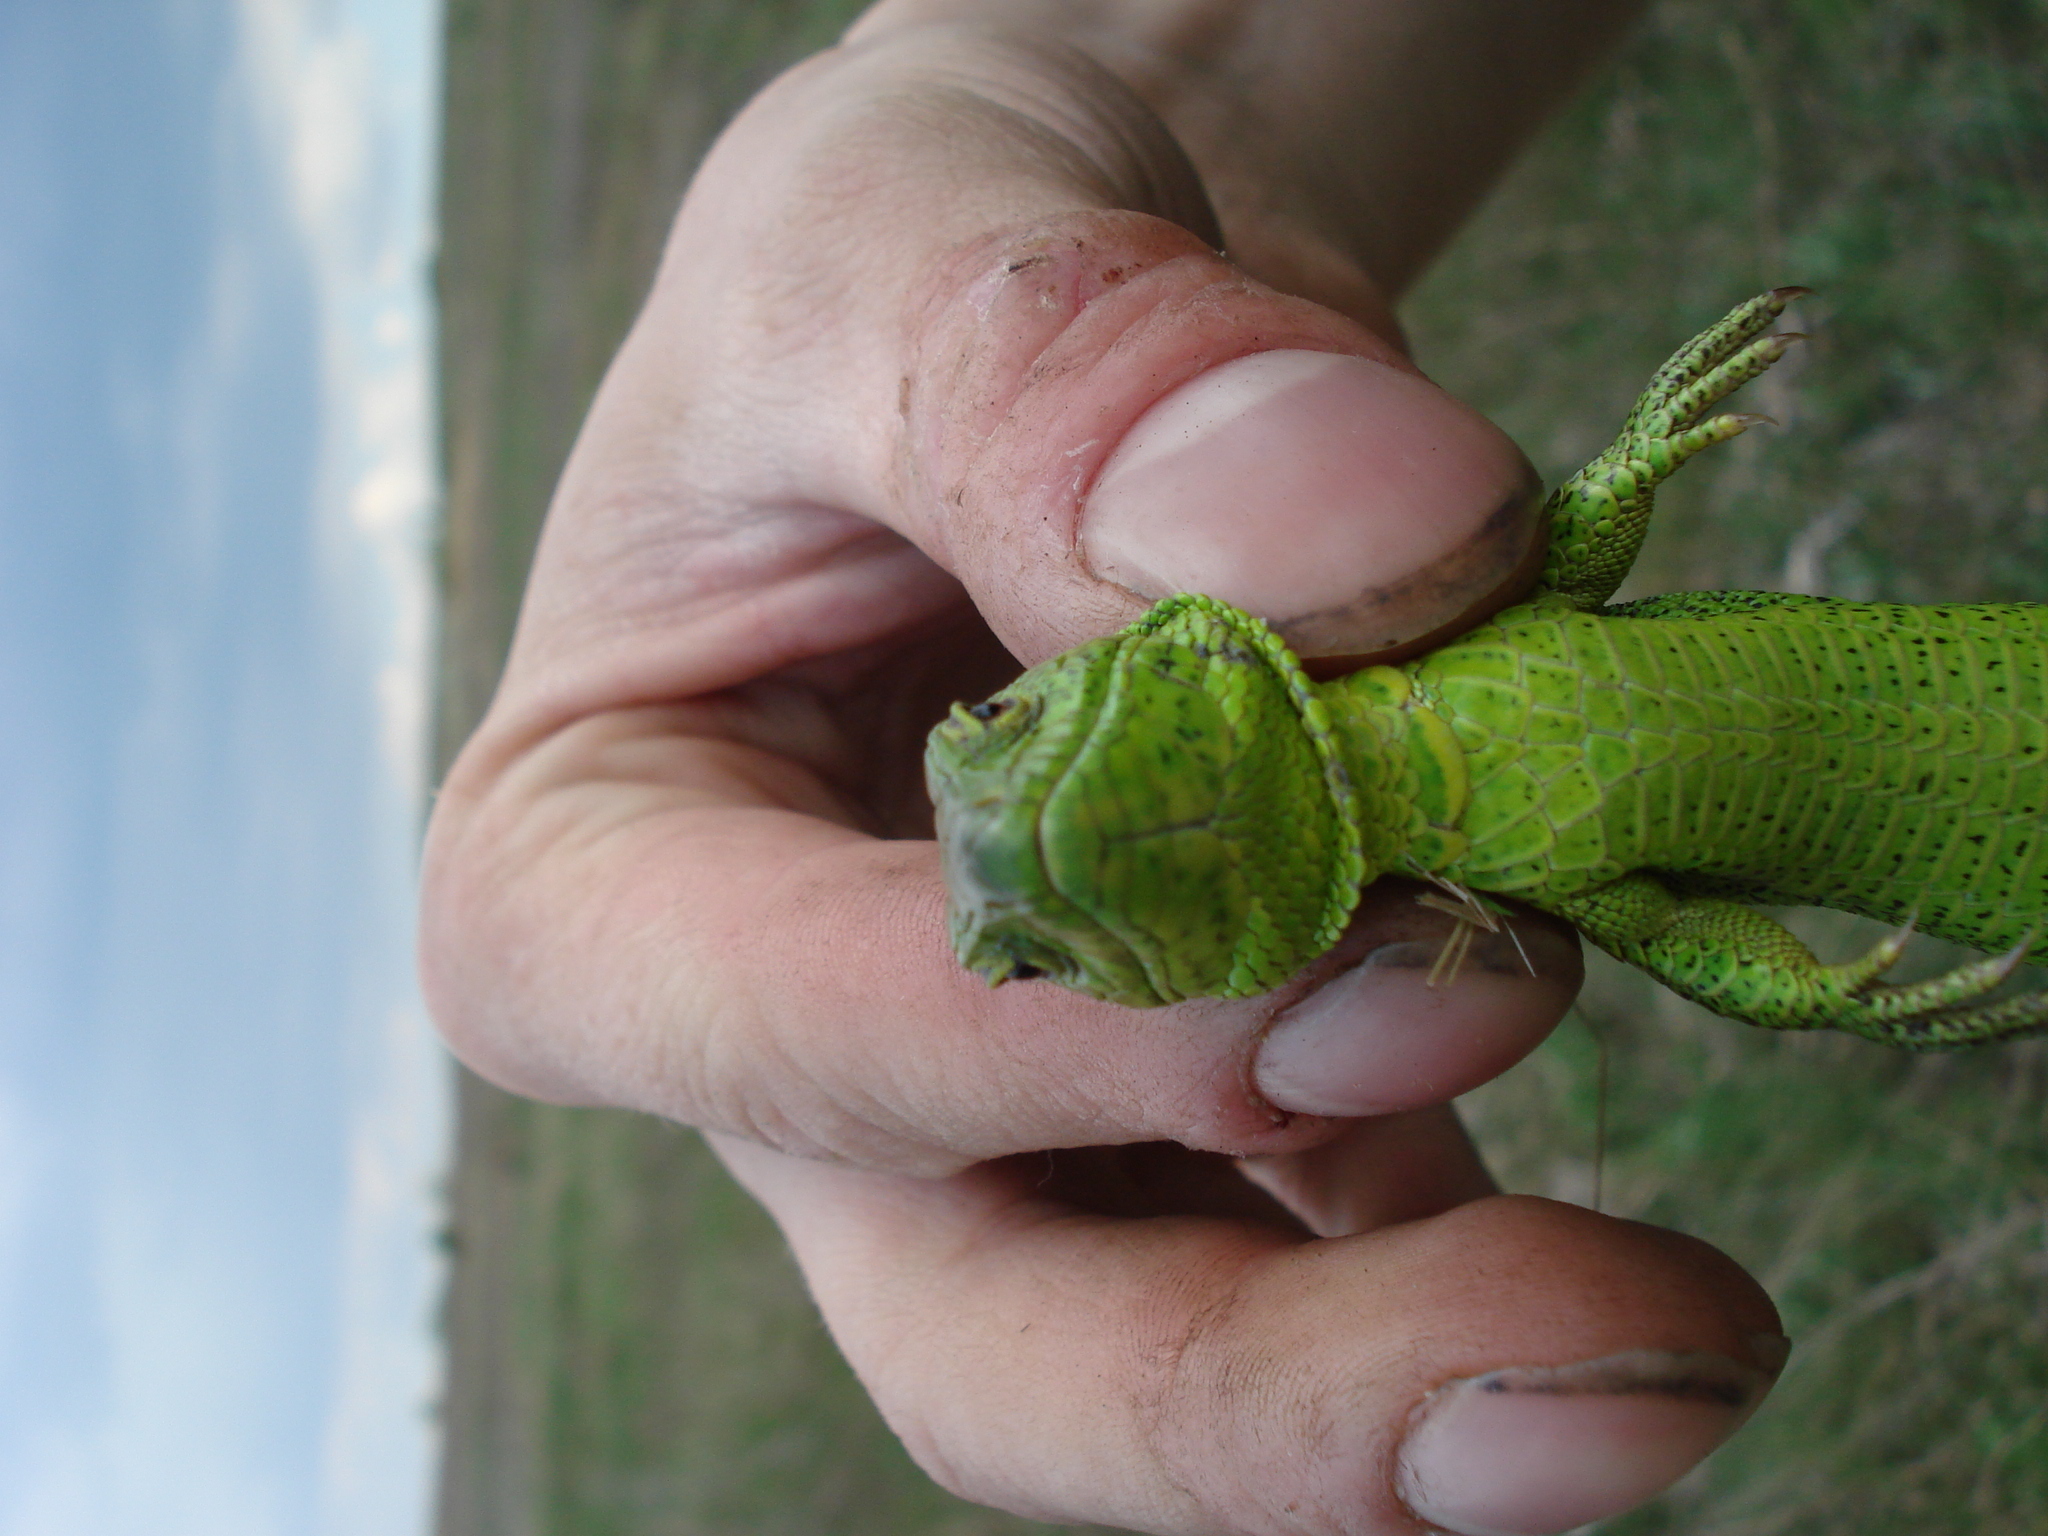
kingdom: Animalia
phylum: Chordata
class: Squamata
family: Lacertidae
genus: Lacerta
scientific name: Lacerta agilis
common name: Sand lizard
